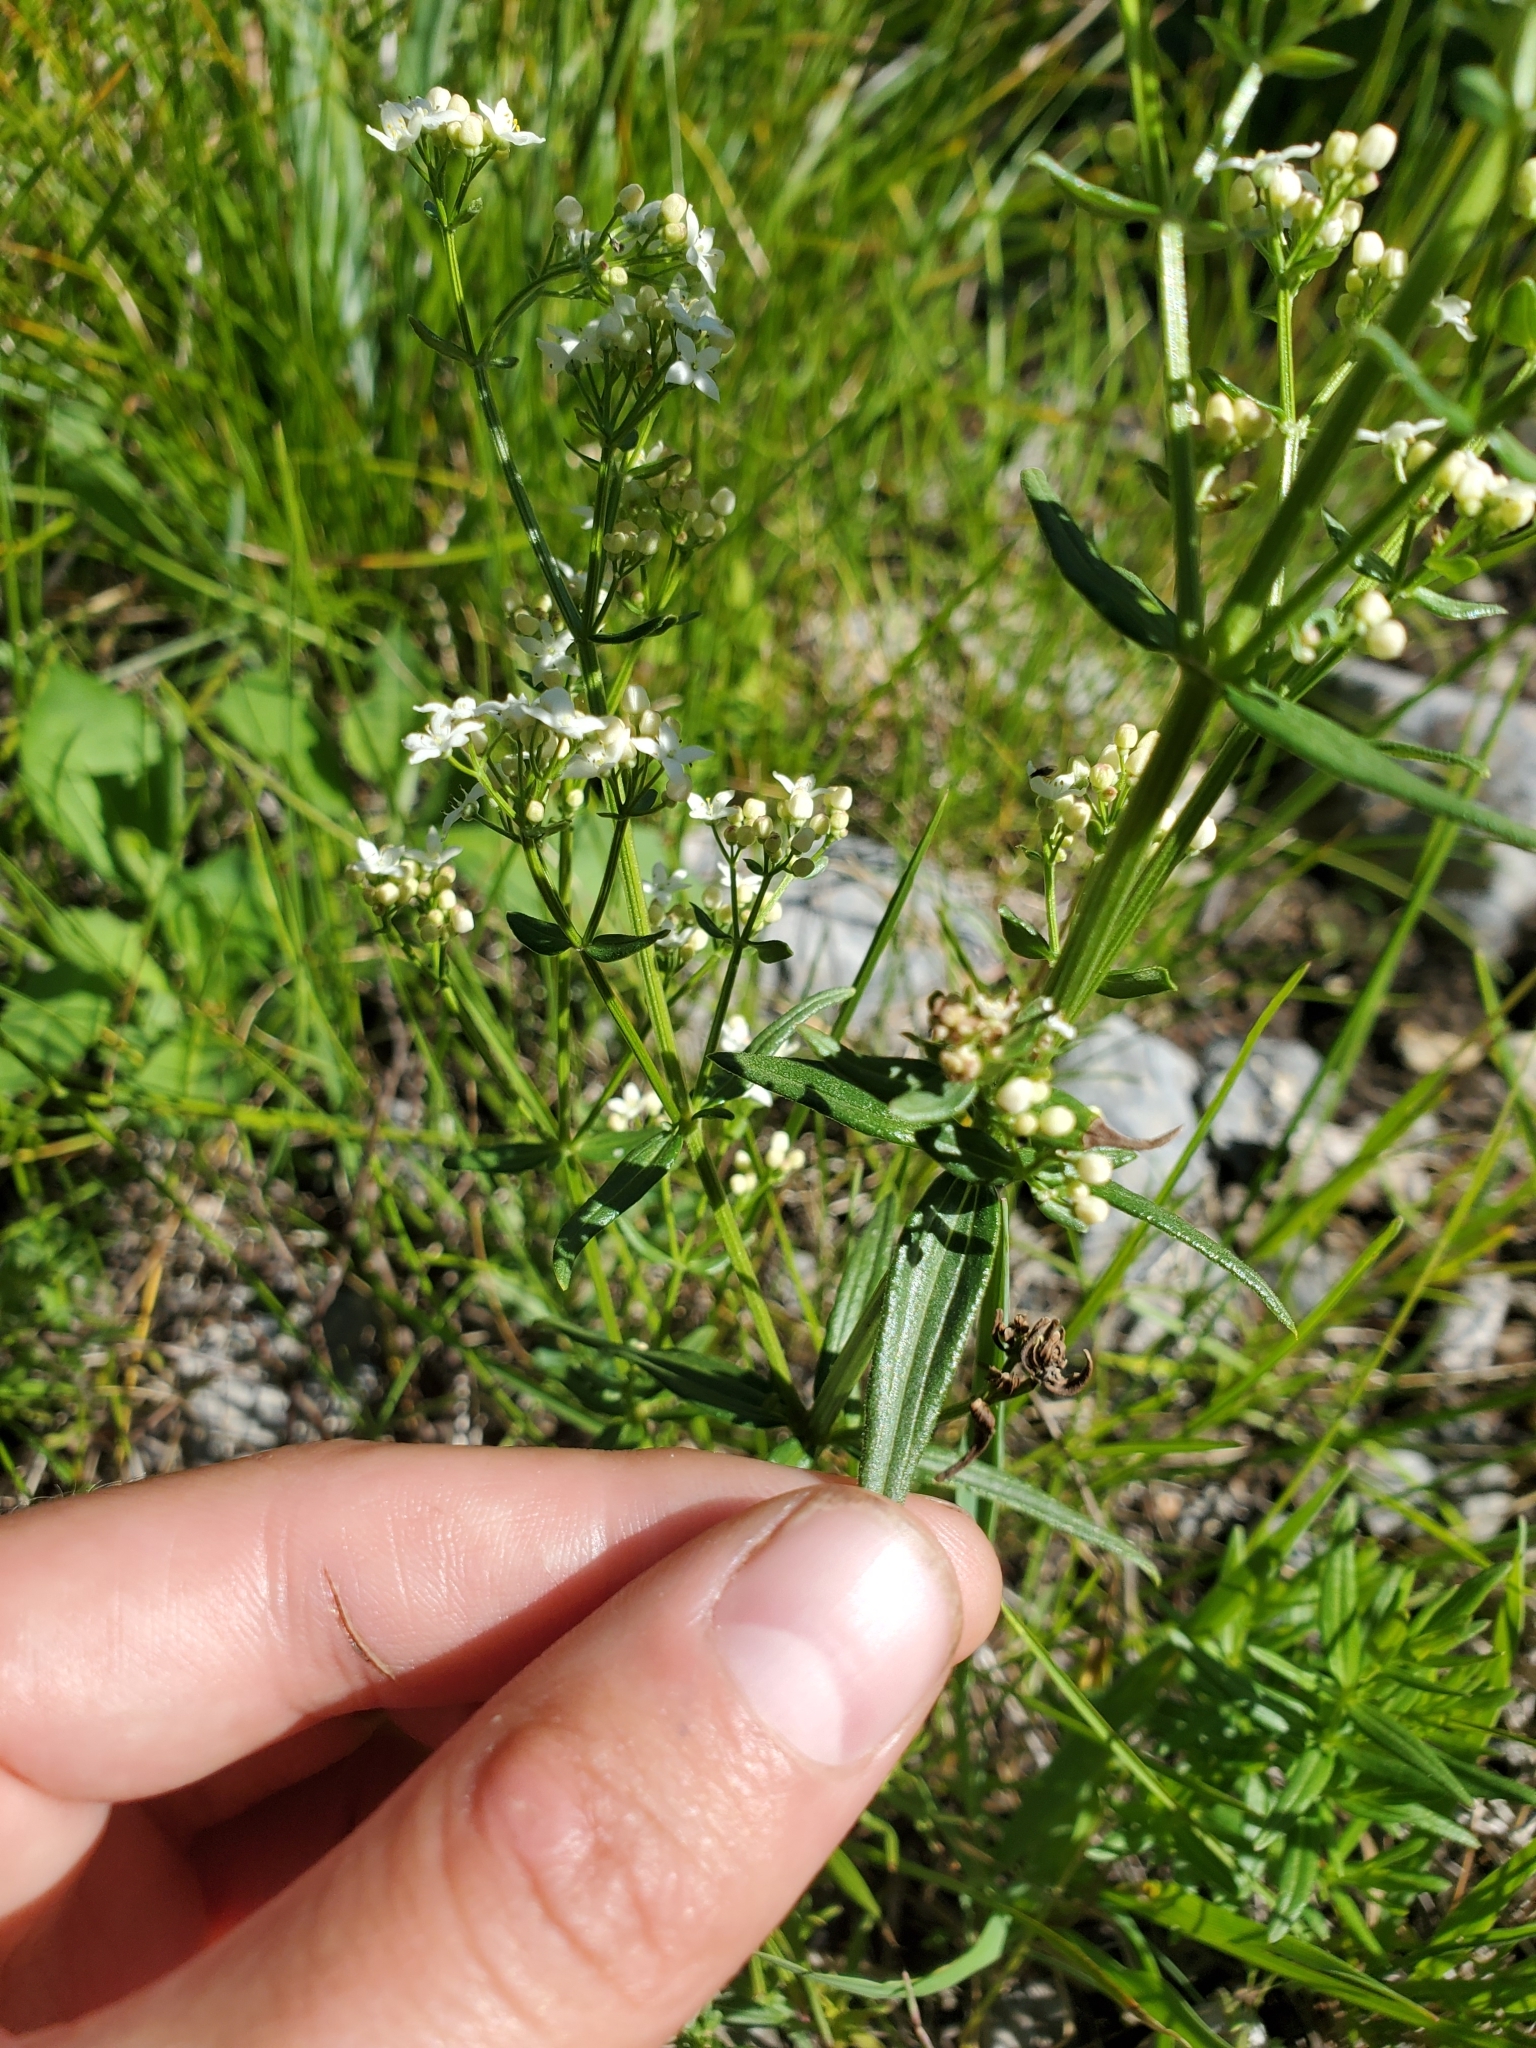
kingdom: Plantae
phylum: Tracheophyta
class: Magnoliopsida
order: Gentianales
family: Rubiaceae
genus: Galium
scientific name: Galium boreale
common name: Northern bedstraw
